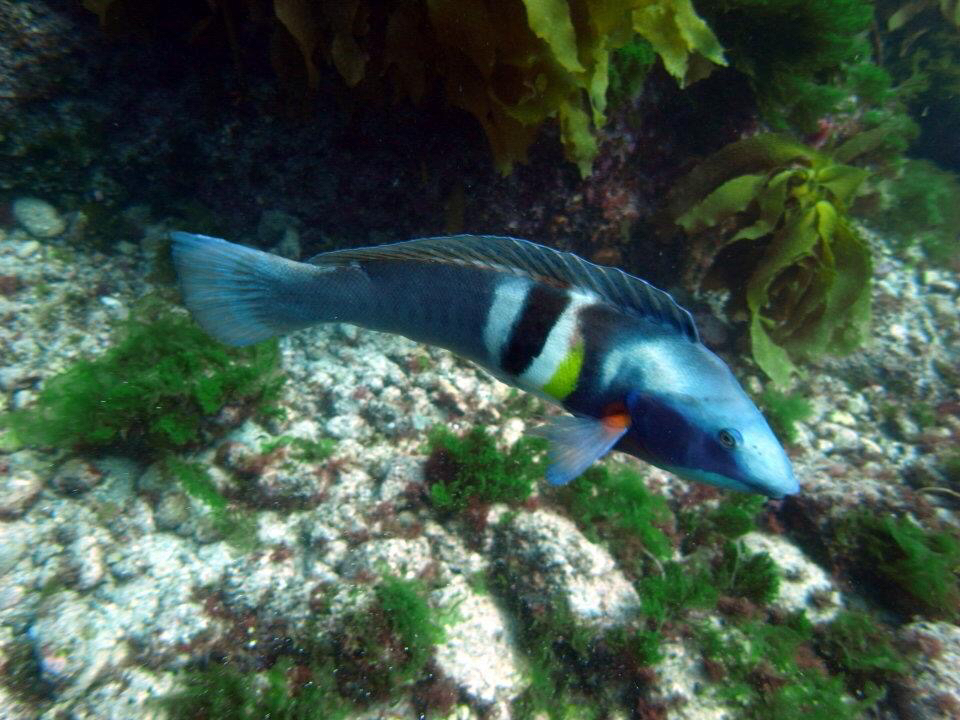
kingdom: Animalia
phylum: Chordata
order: Perciformes
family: Labridae
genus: Coris
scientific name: Coris sandeyeri
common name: Sandager's wrasse
